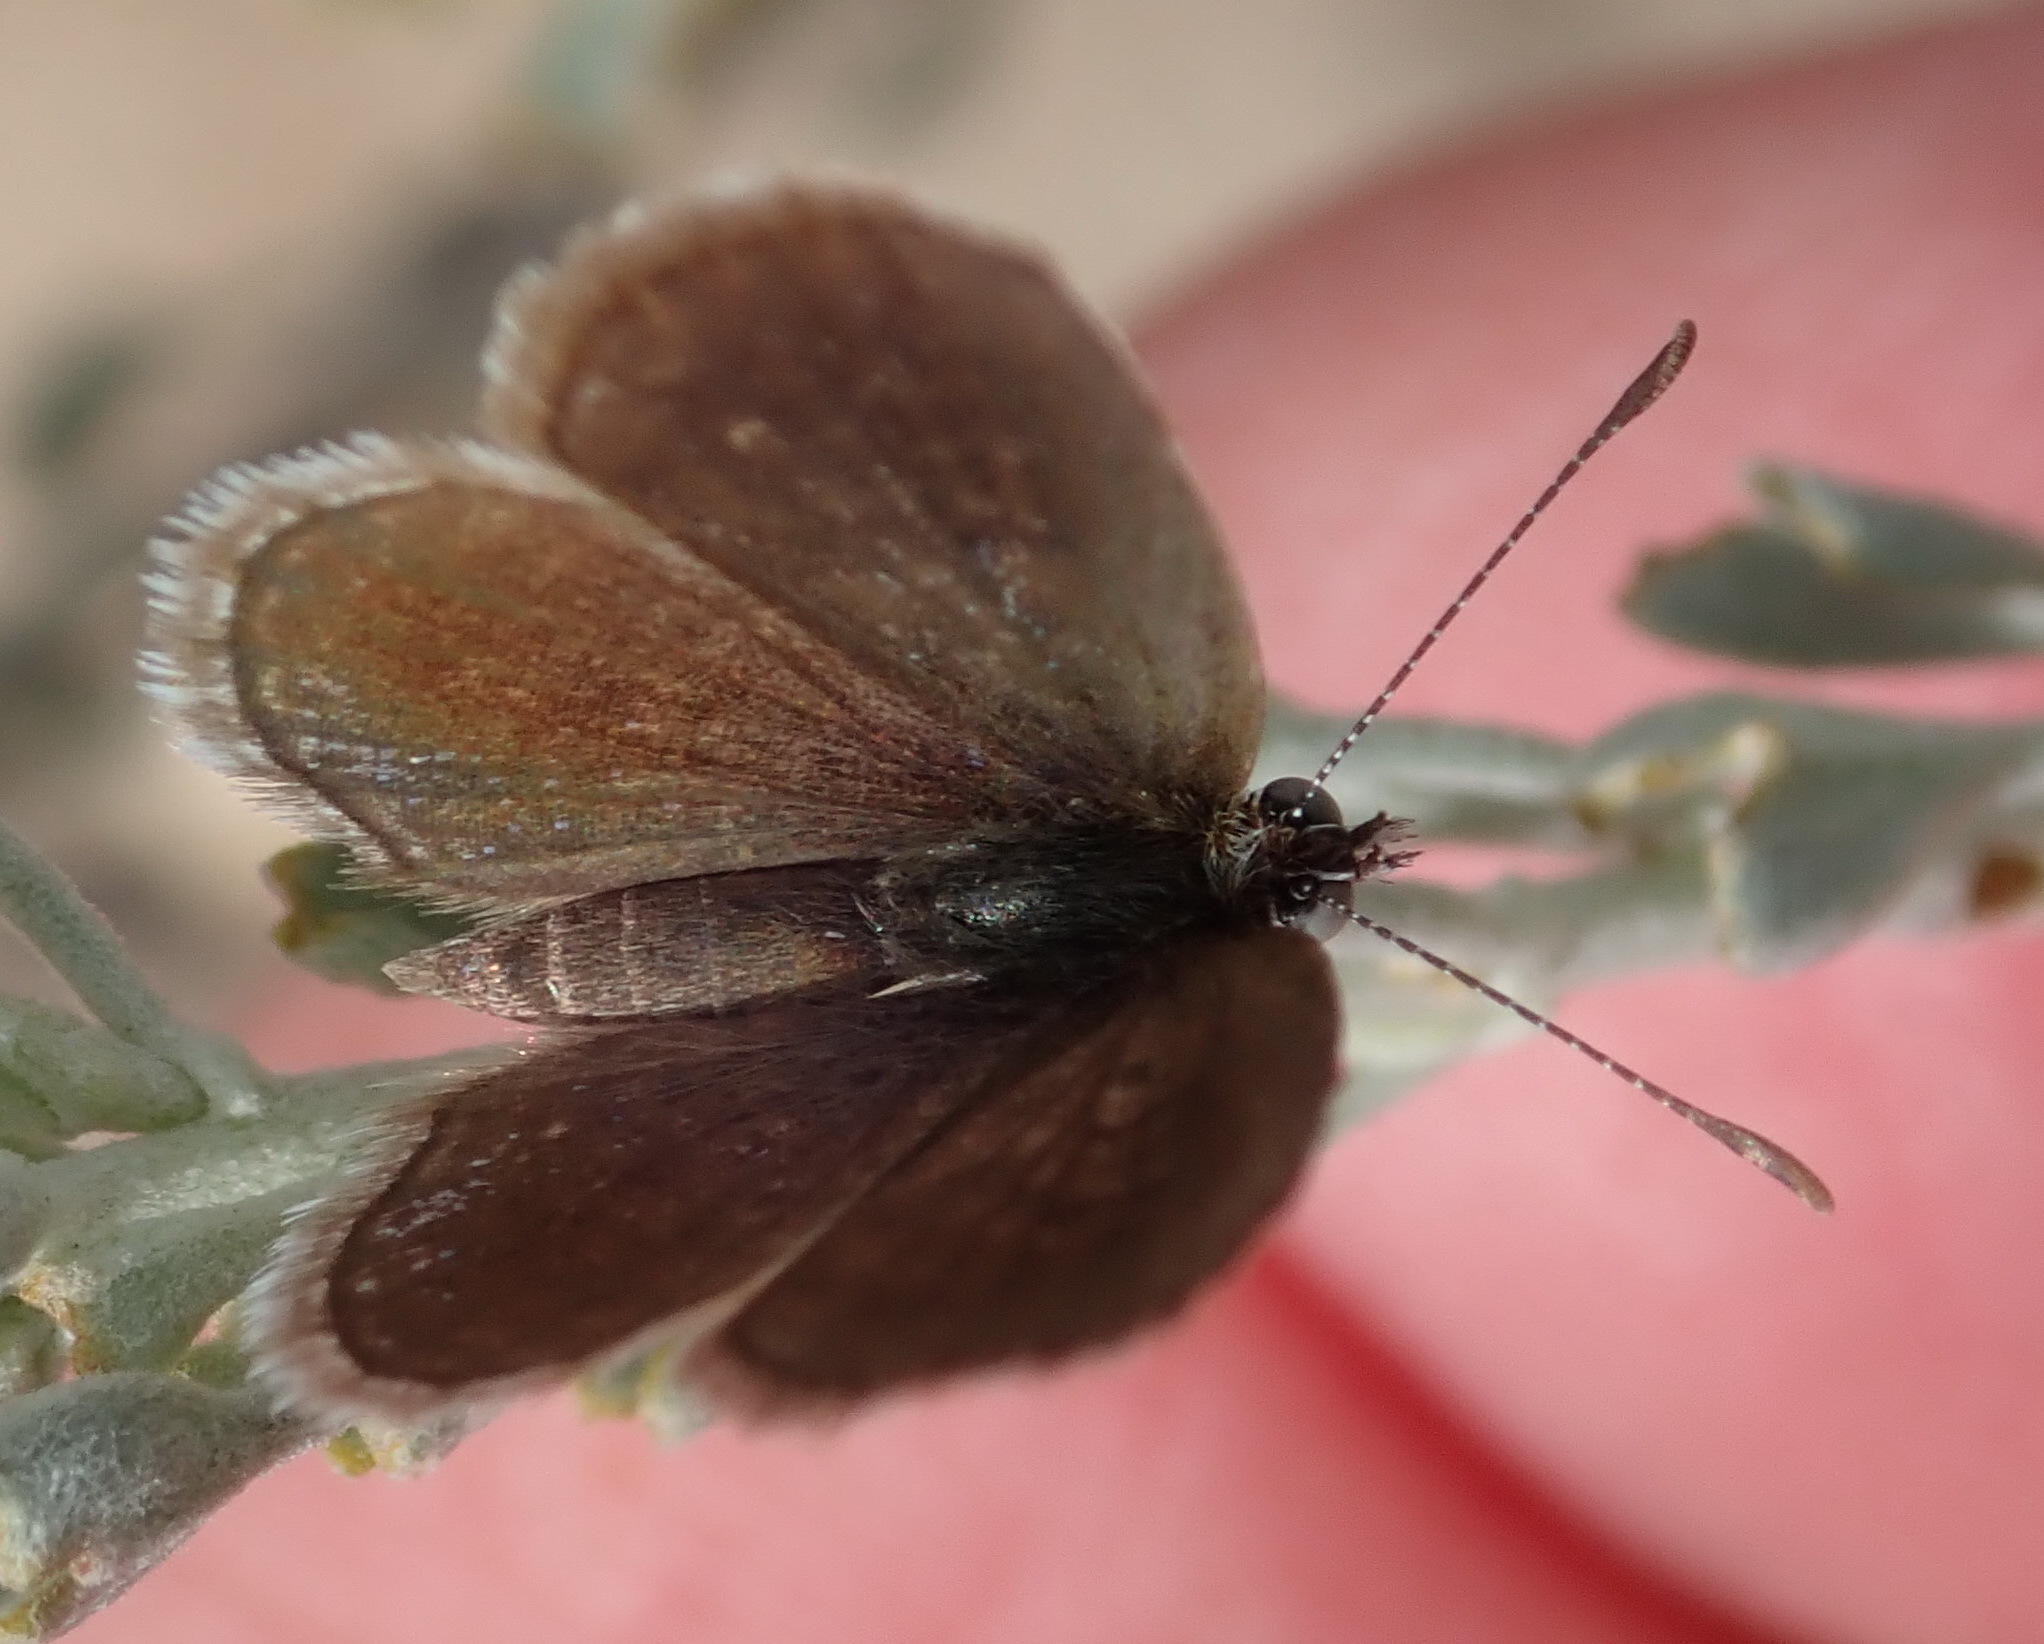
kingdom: Animalia
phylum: Arthropoda
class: Insecta
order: Lepidoptera
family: Lycaenidae
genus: Actizera
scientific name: Actizera lucida
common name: Rayed blue
